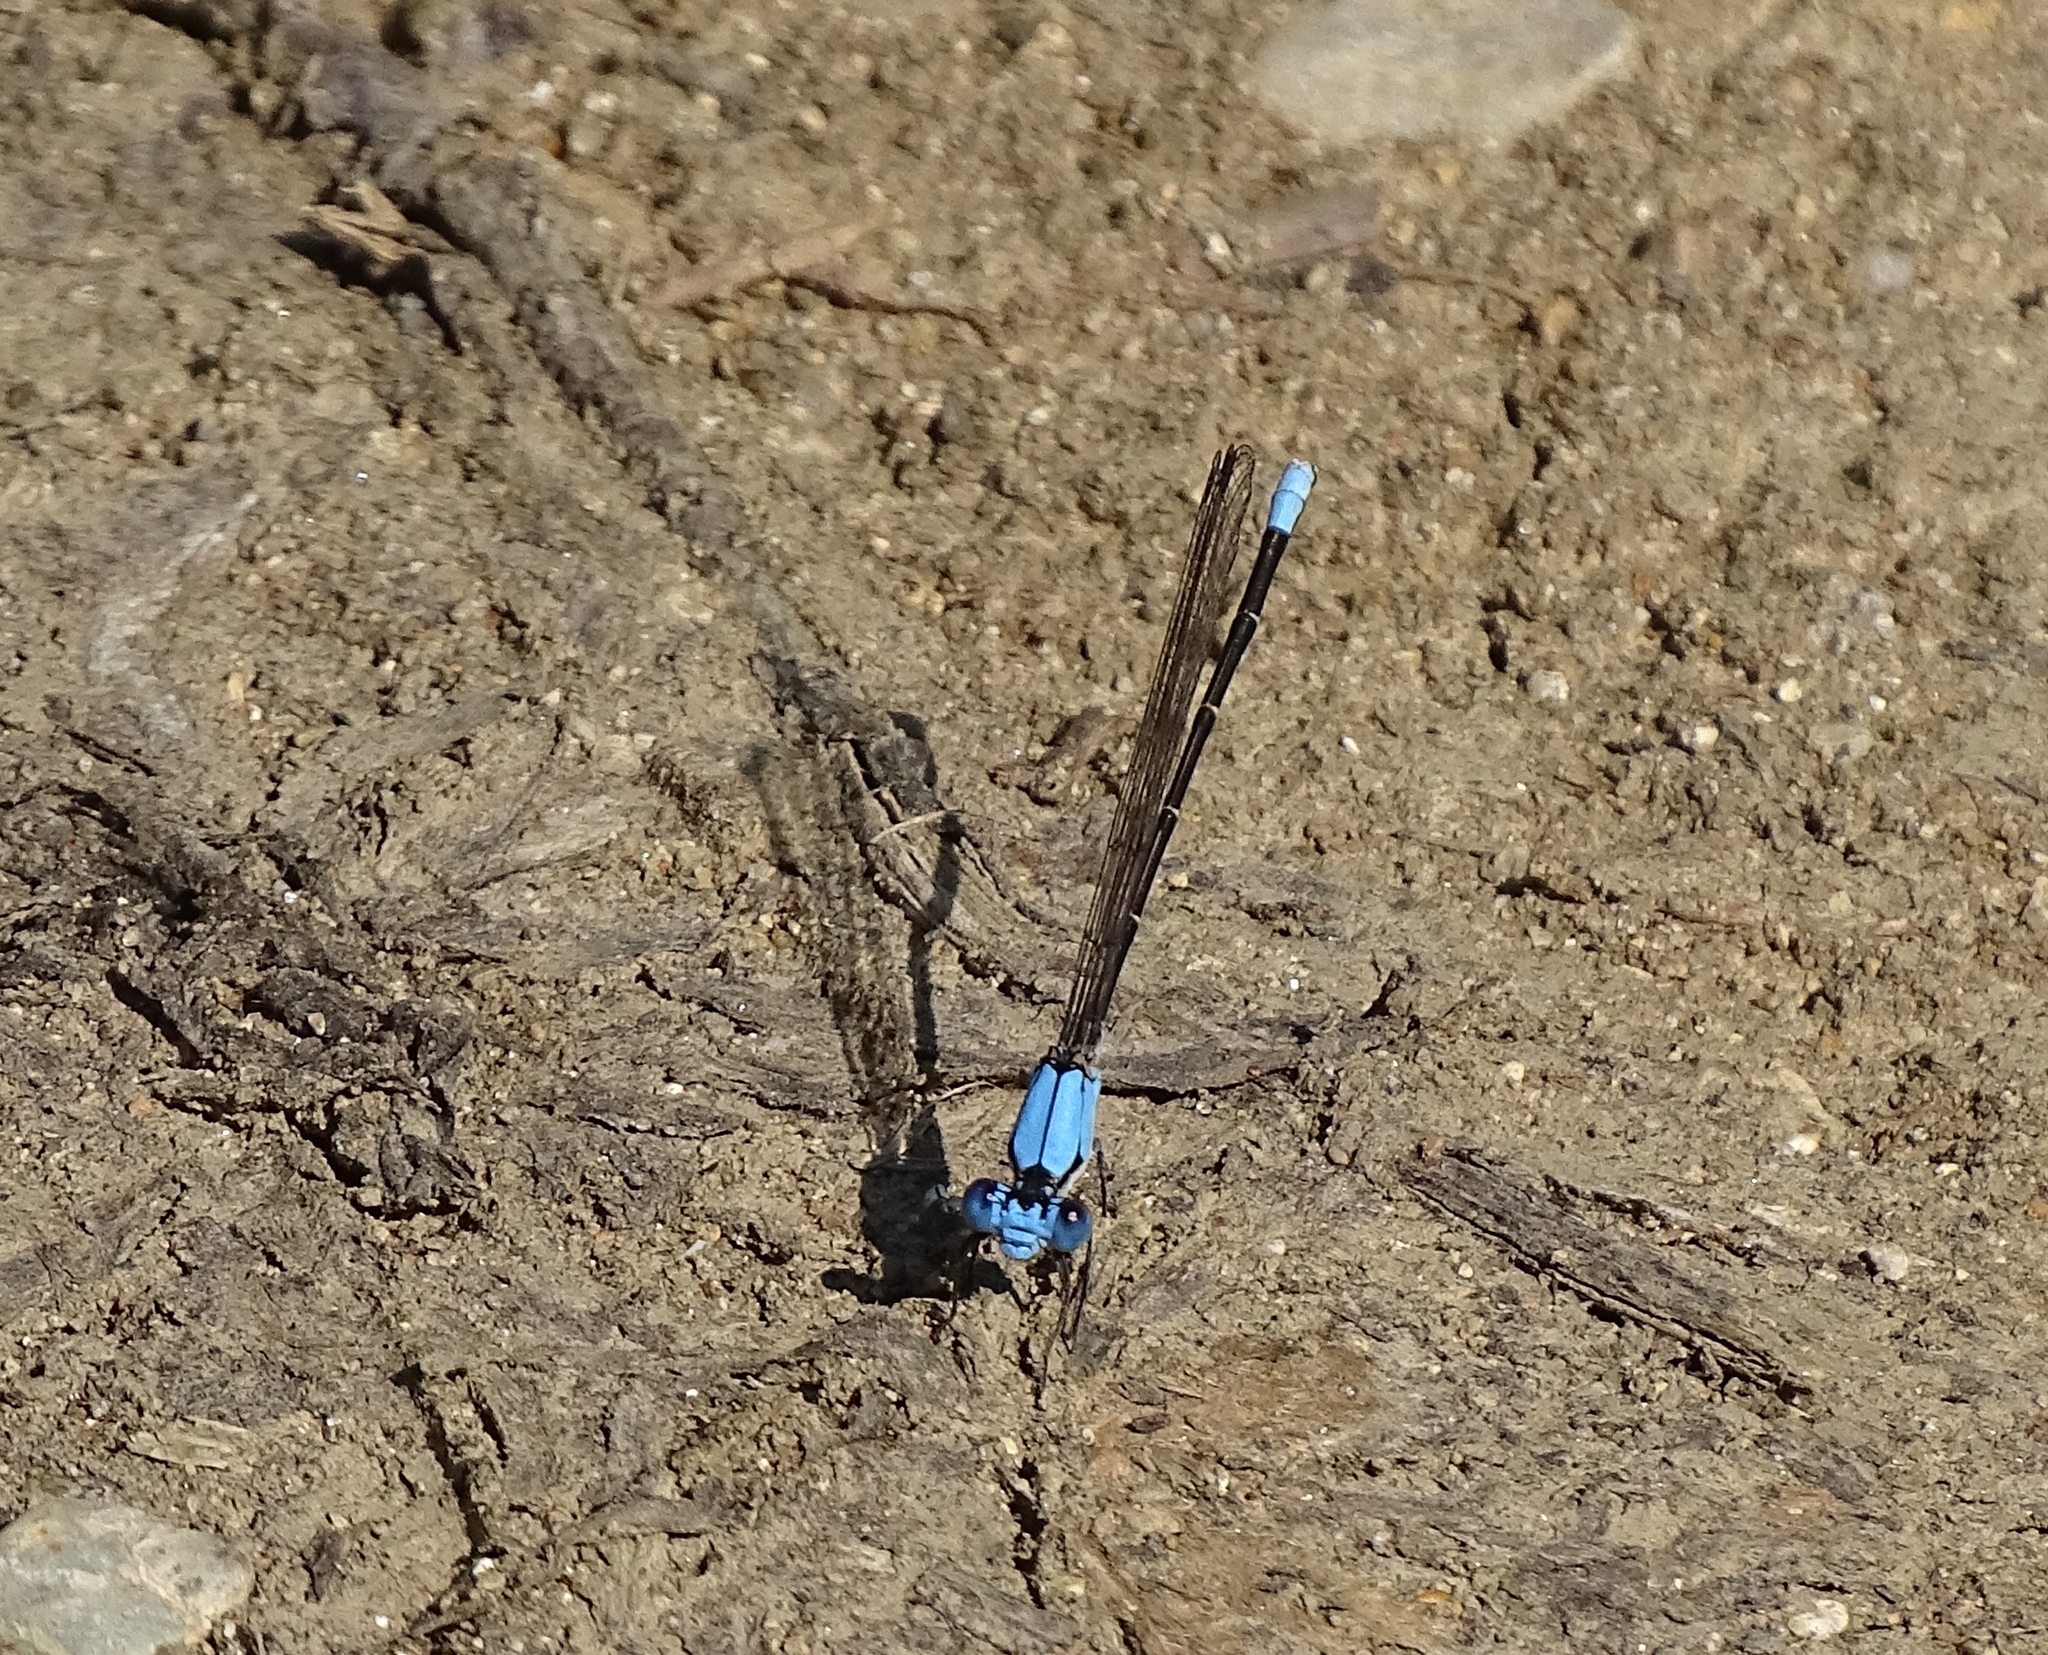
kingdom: Animalia
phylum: Arthropoda
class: Insecta
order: Odonata
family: Coenagrionidae
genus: Argia
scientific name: Argia apicalis
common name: Blue-fronted dancer
